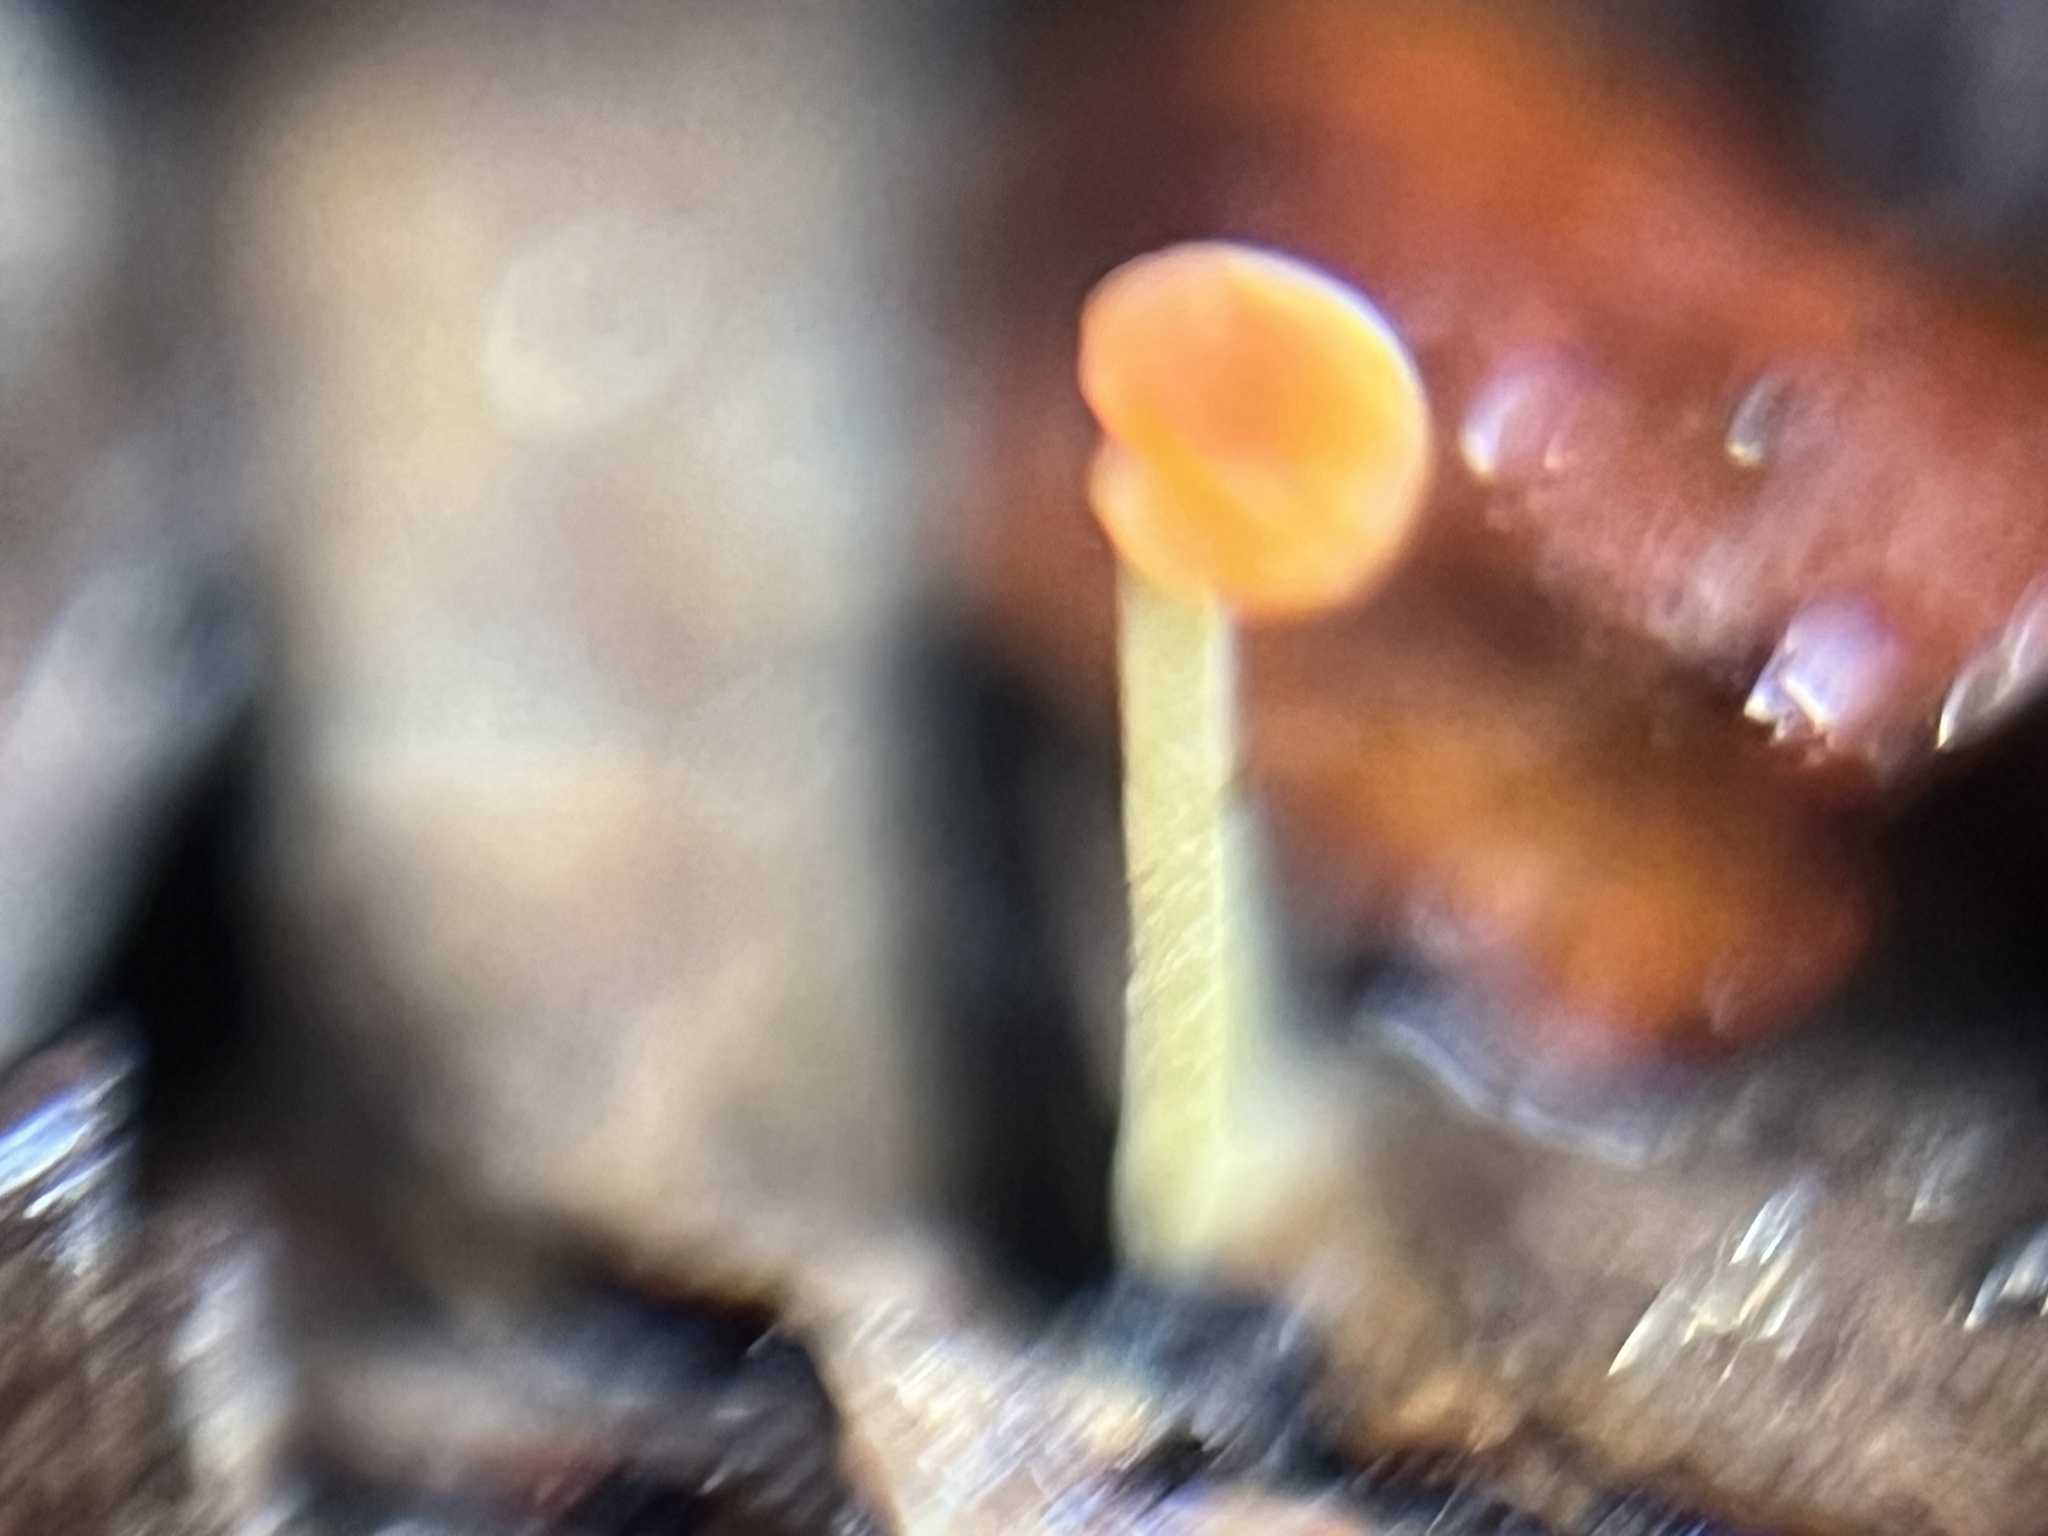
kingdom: Fungi
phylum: Basidiomycota
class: Agaricomycetes
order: Agaricales
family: Mycenaceae
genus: Mycena
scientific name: Mycena acicula
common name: Orange bonnet
